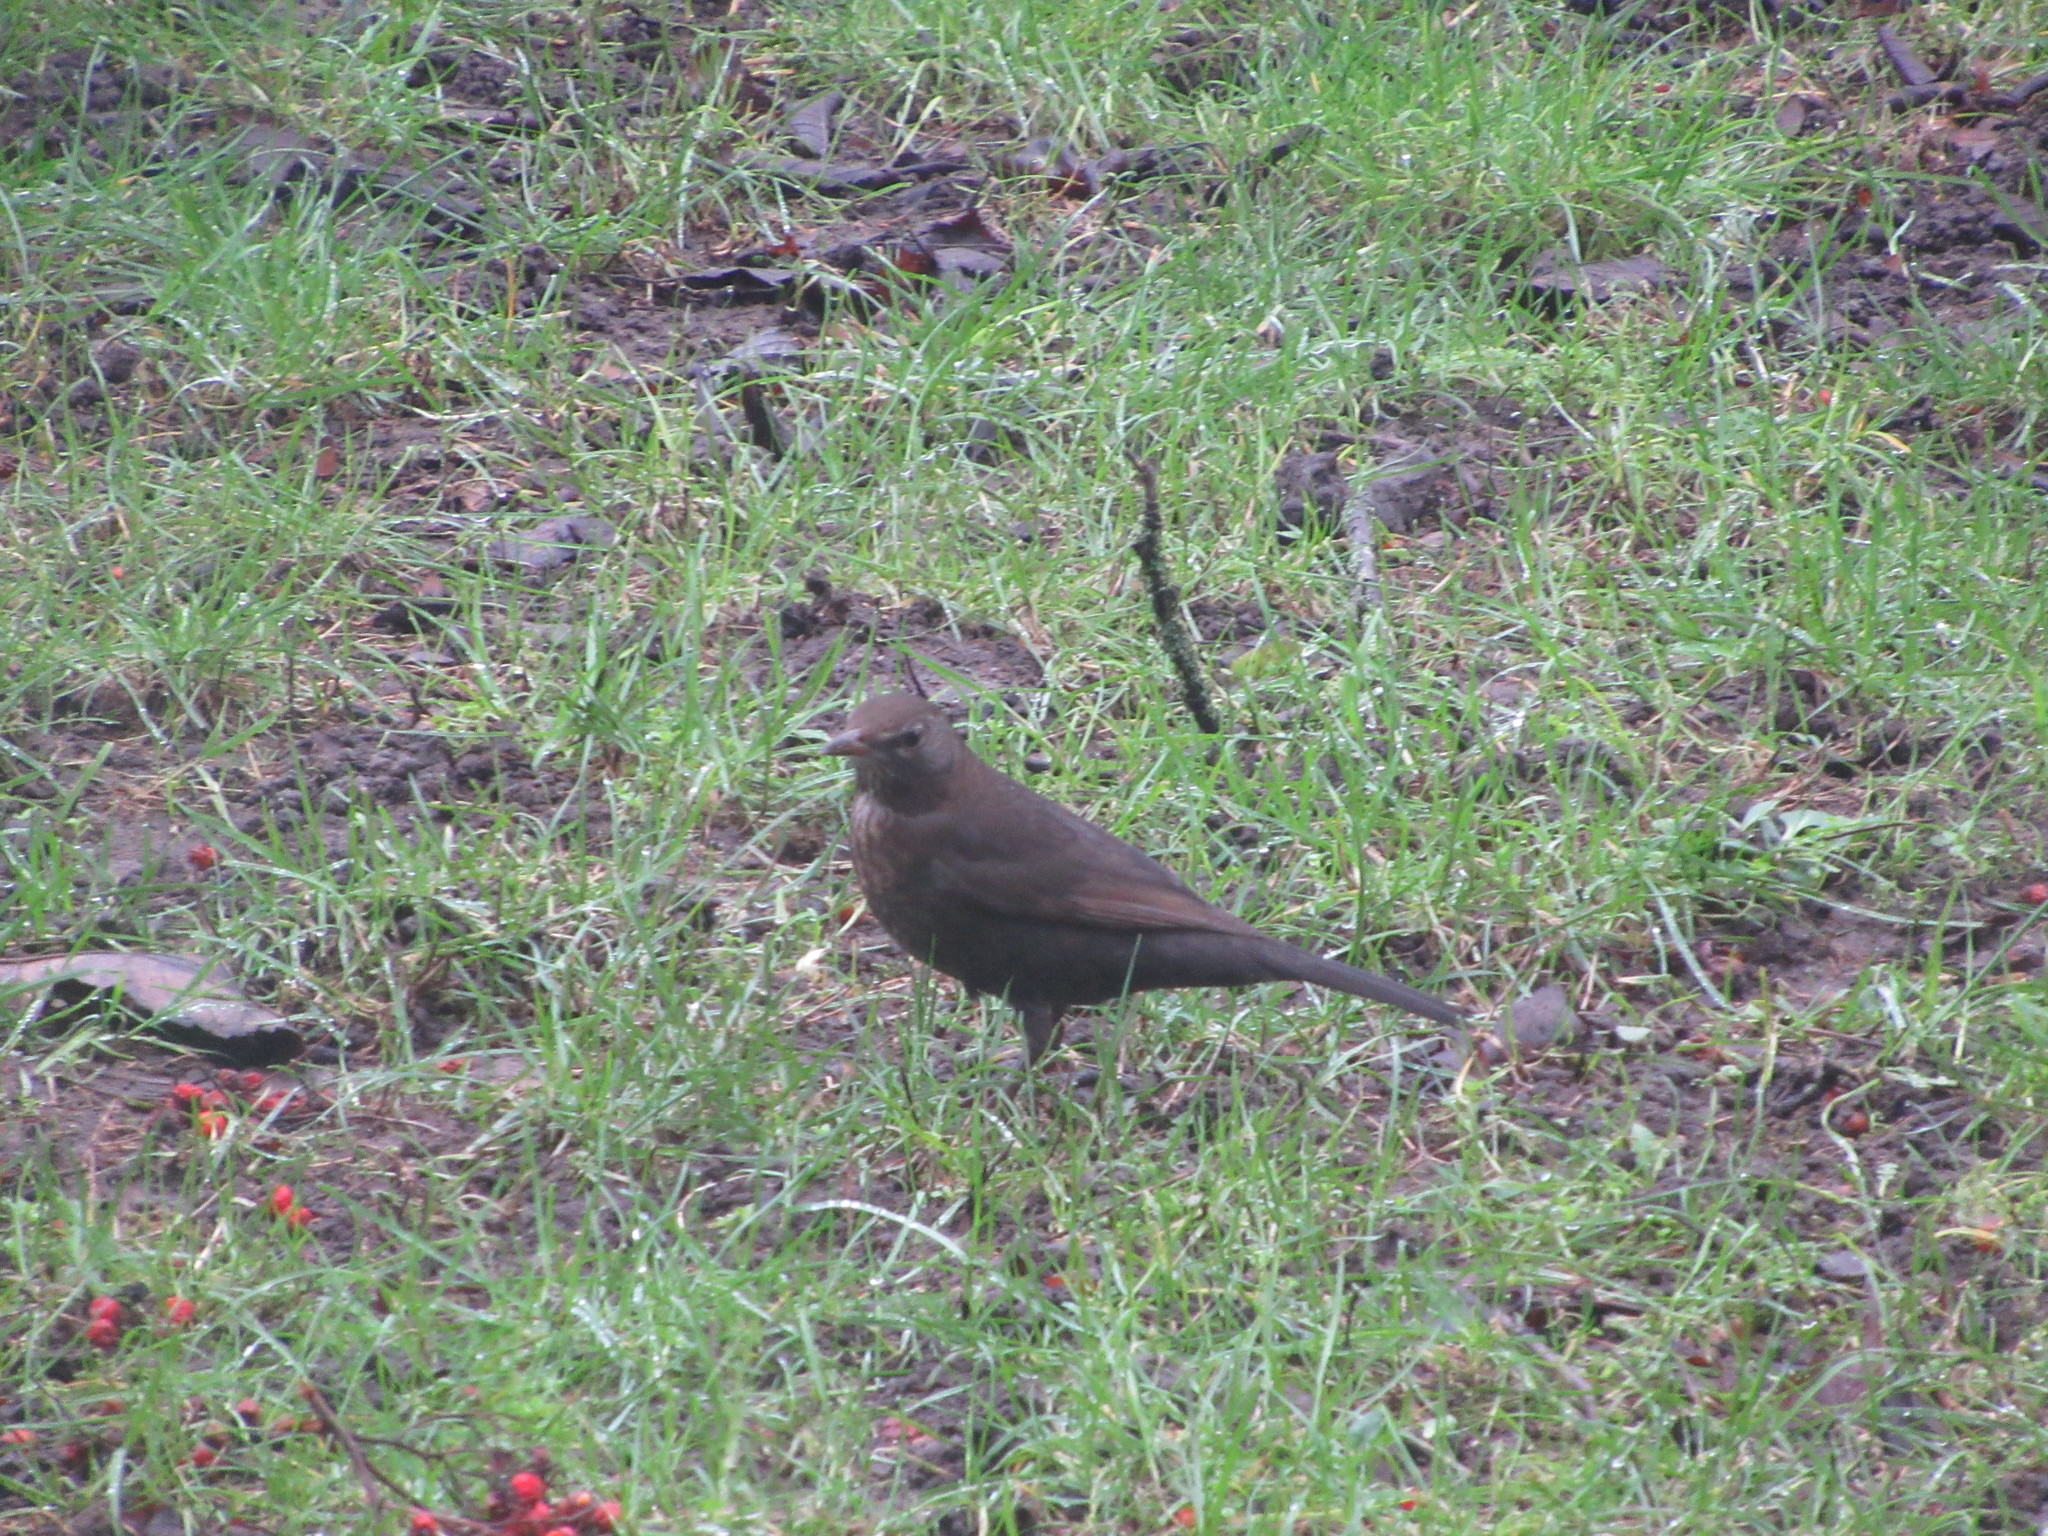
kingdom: Animalia
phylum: Chordata
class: Aves
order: Passeriformes
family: Turdidae
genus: Turdus
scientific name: Turdus merula
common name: Common blackbird
